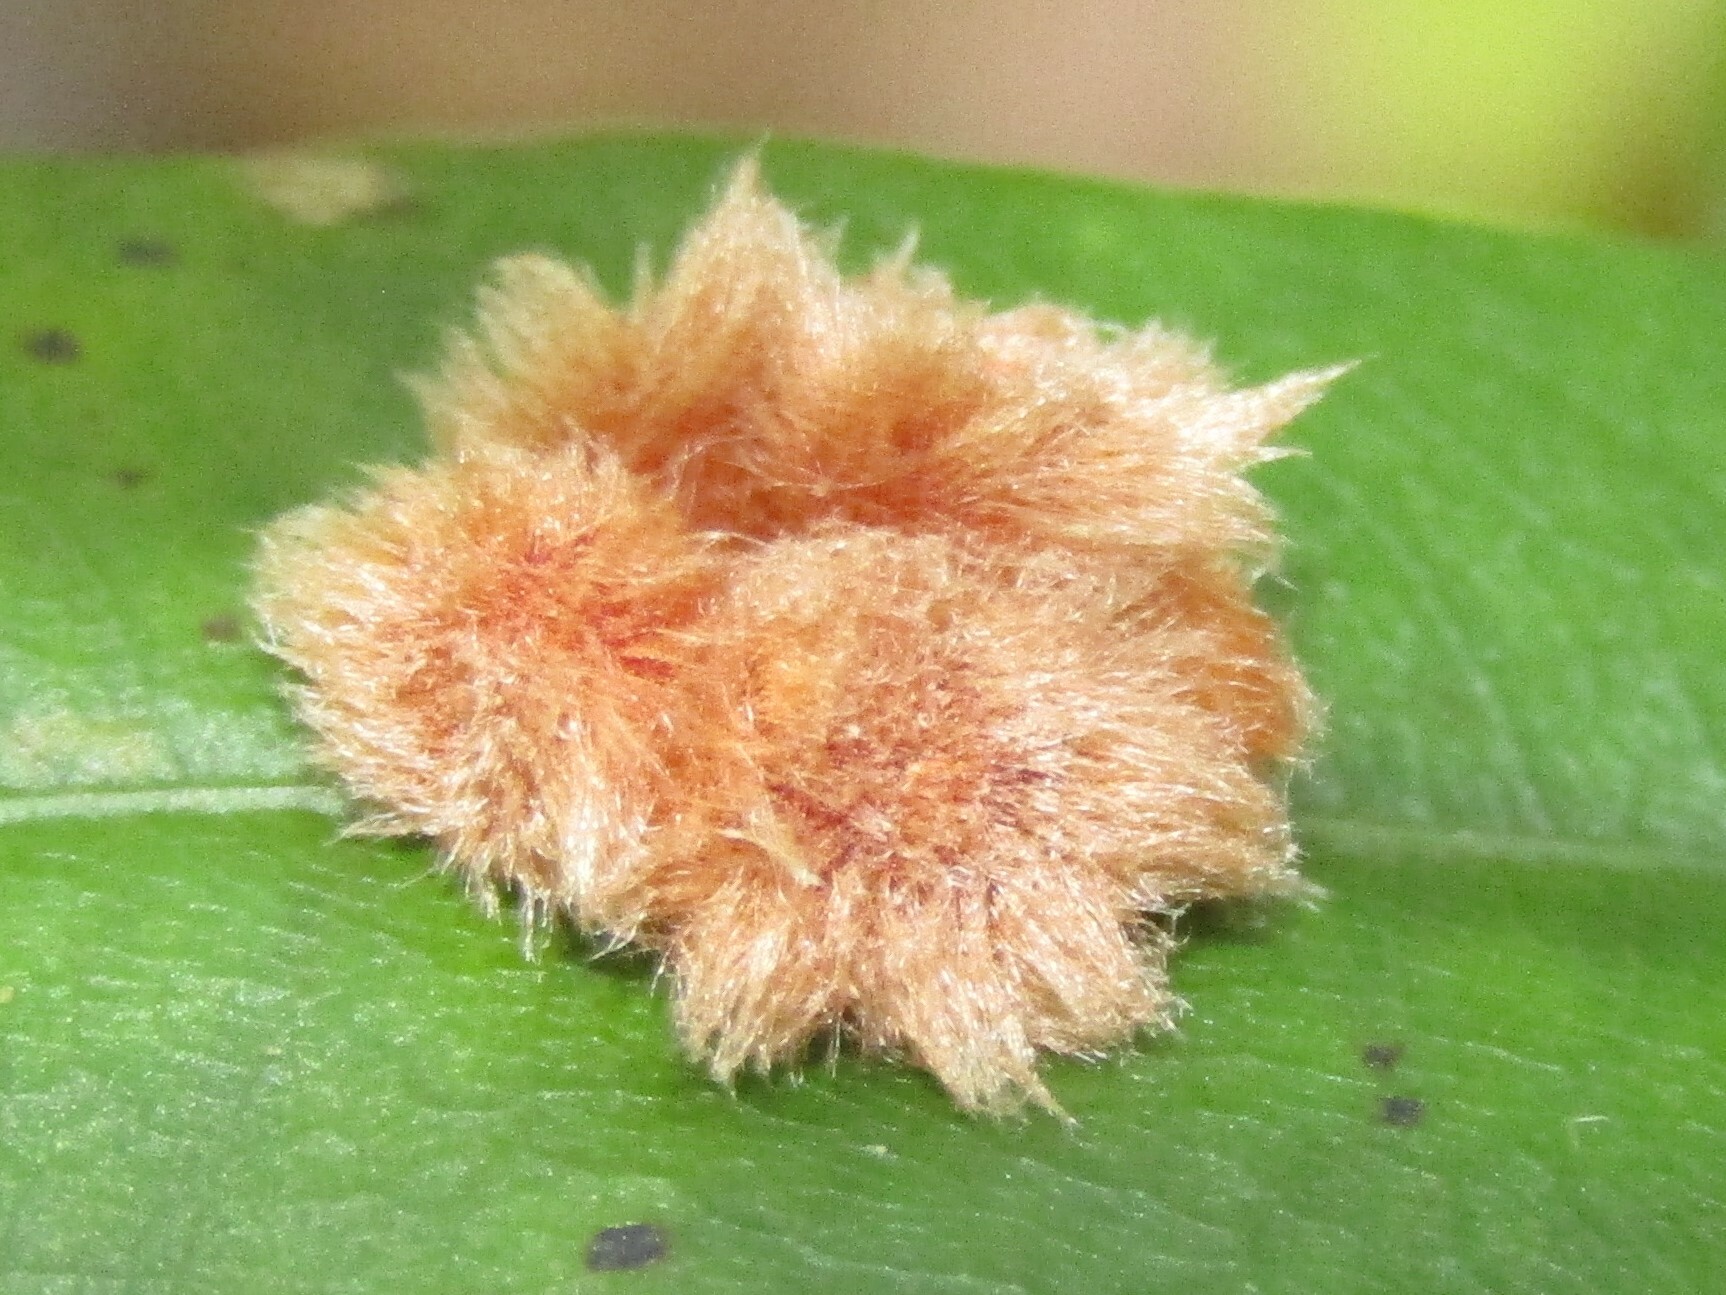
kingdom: Animalia
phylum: Arthropoda
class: Insecta
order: Hymenoptera
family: Cynipidae
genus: Callirhytis
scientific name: Callirhytis
